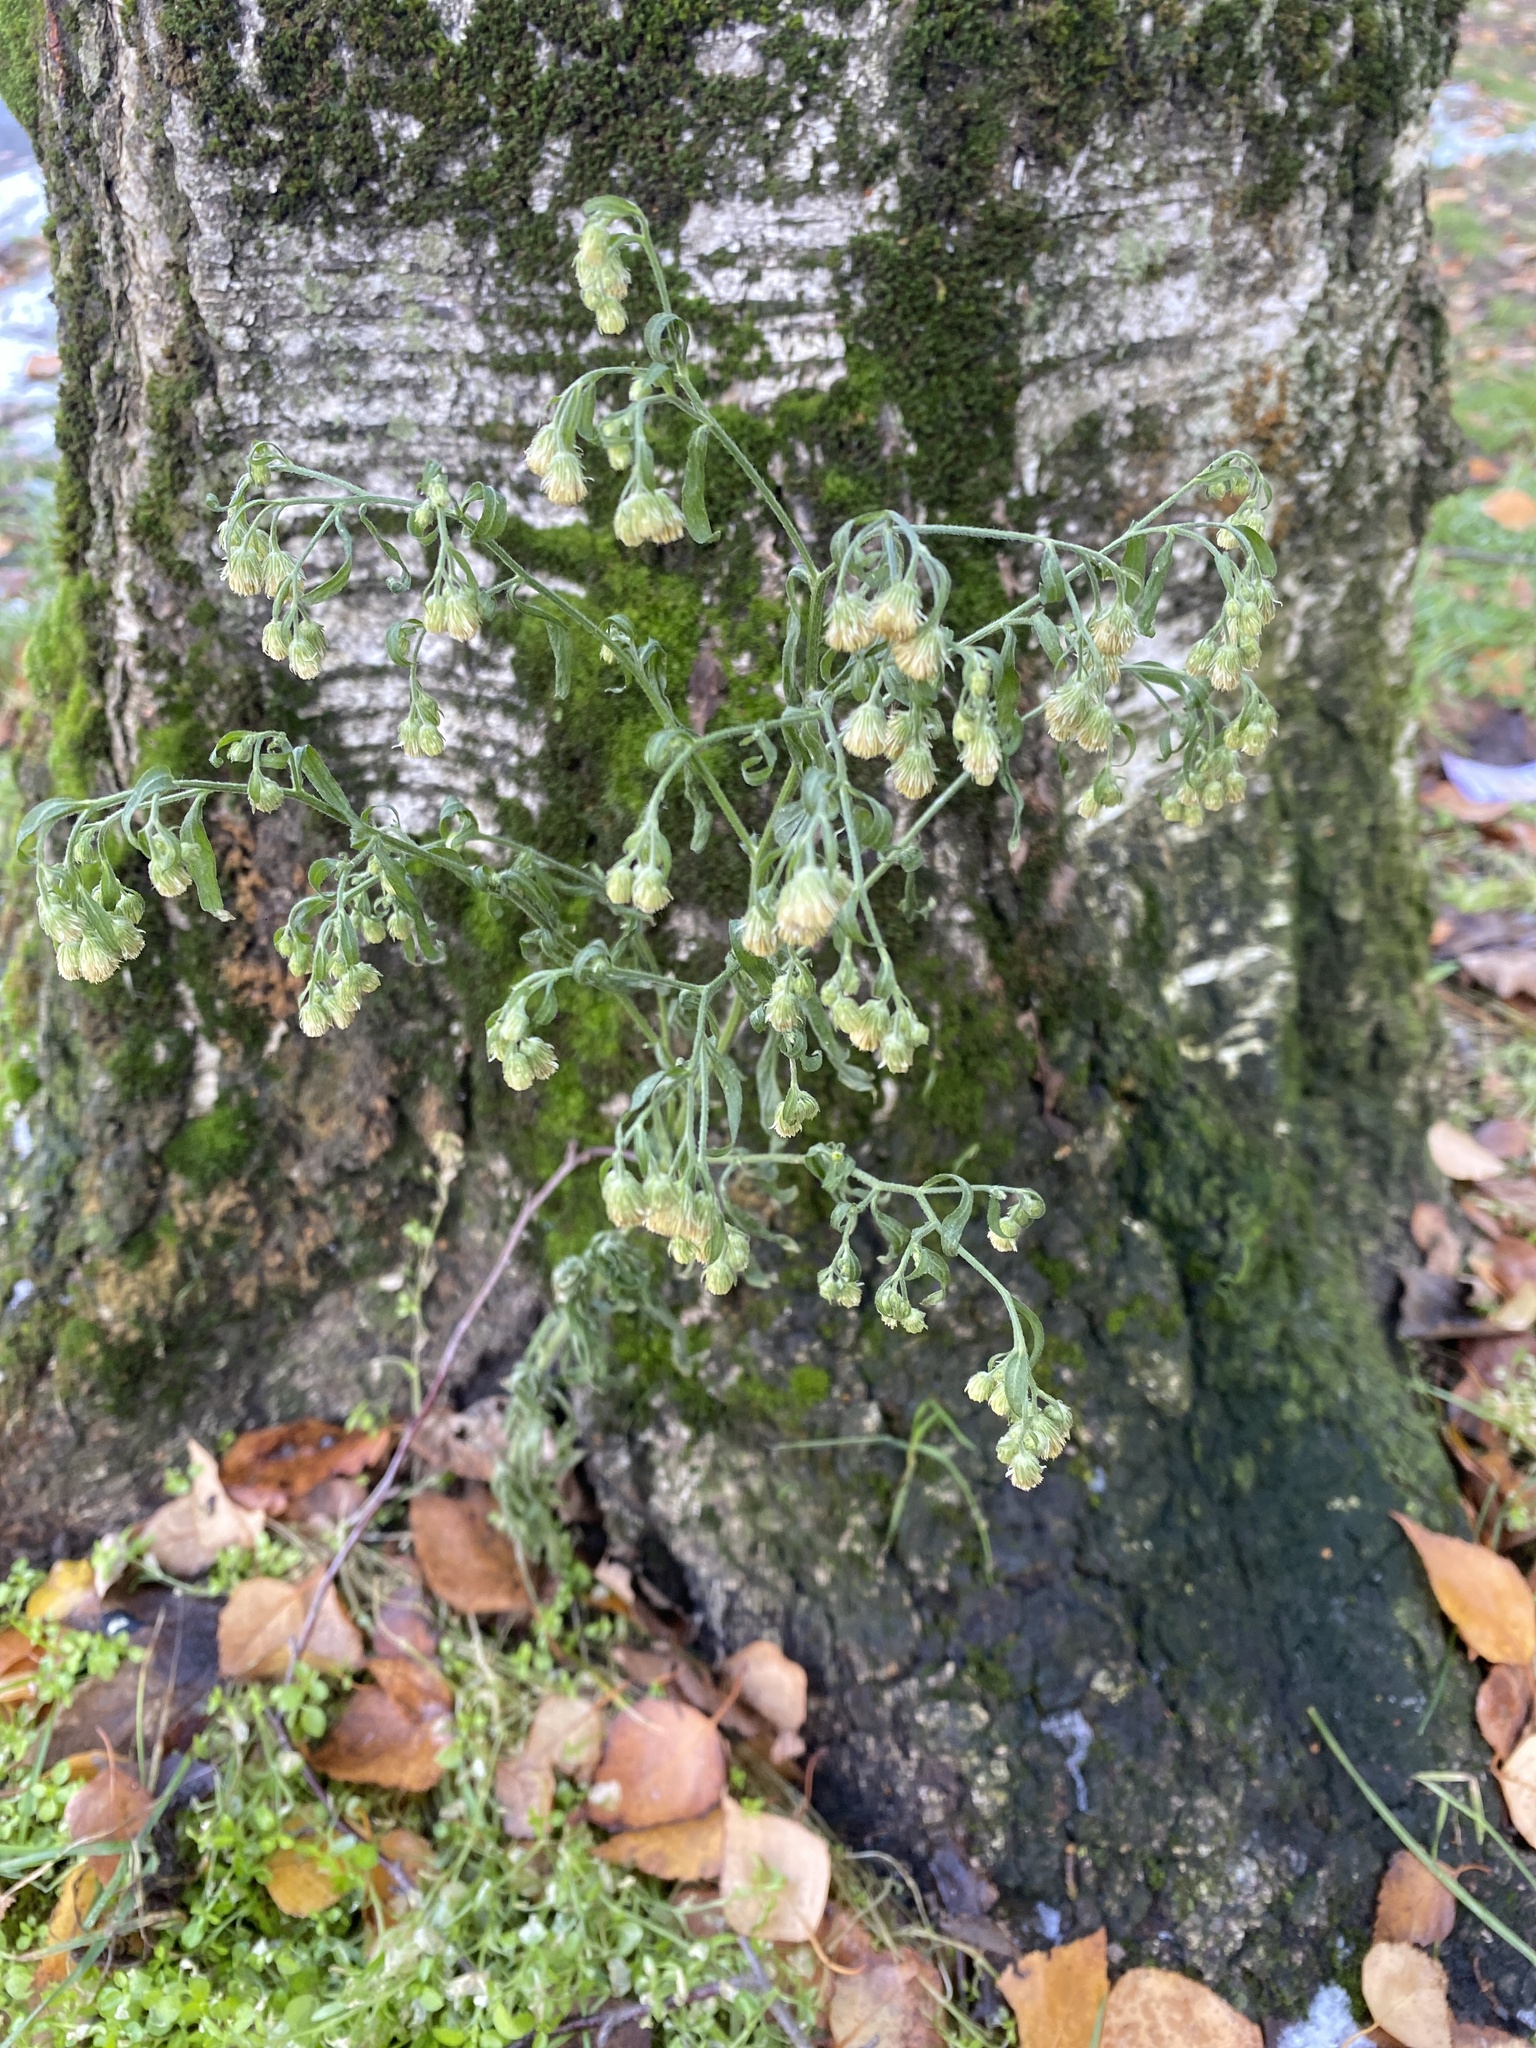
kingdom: Plantae
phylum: Tracheophyta
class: Magnoliopsida
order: Asterales
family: Asteraceae
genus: Erigeron
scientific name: Erigeron sumatrensis
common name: Daisy
